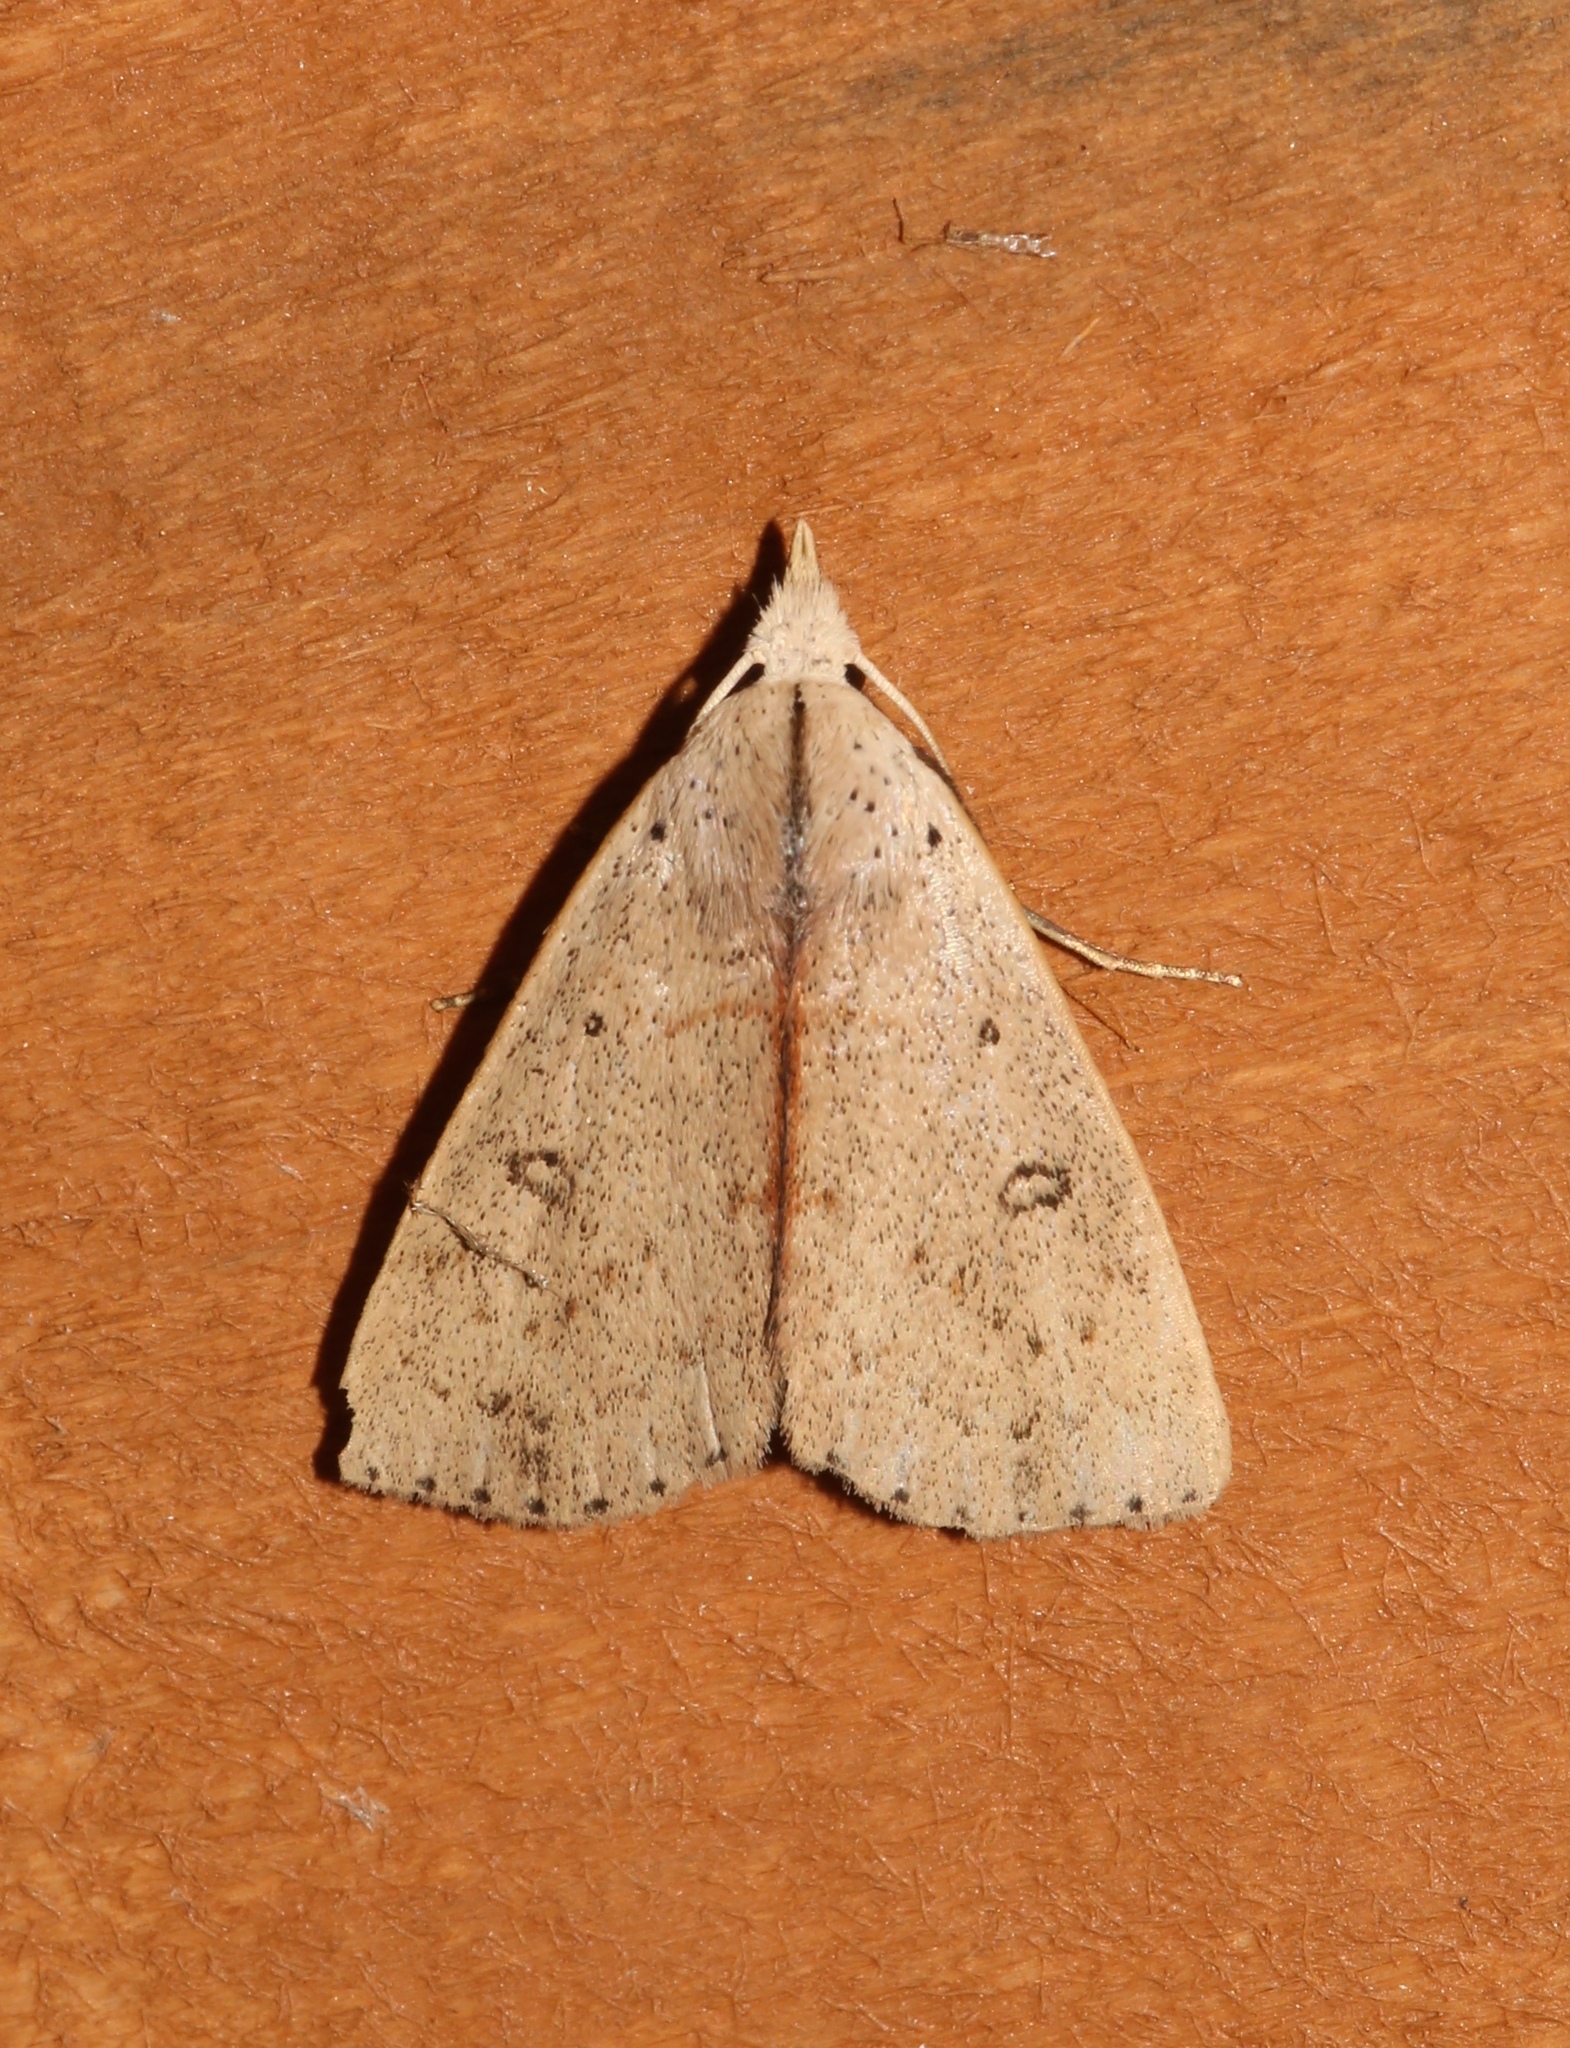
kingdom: Animalia
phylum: Arthropoda
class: Insecta
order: Lepidoptera
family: Erebidae
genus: Scolecocampa
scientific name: Scolecocampa liburna
